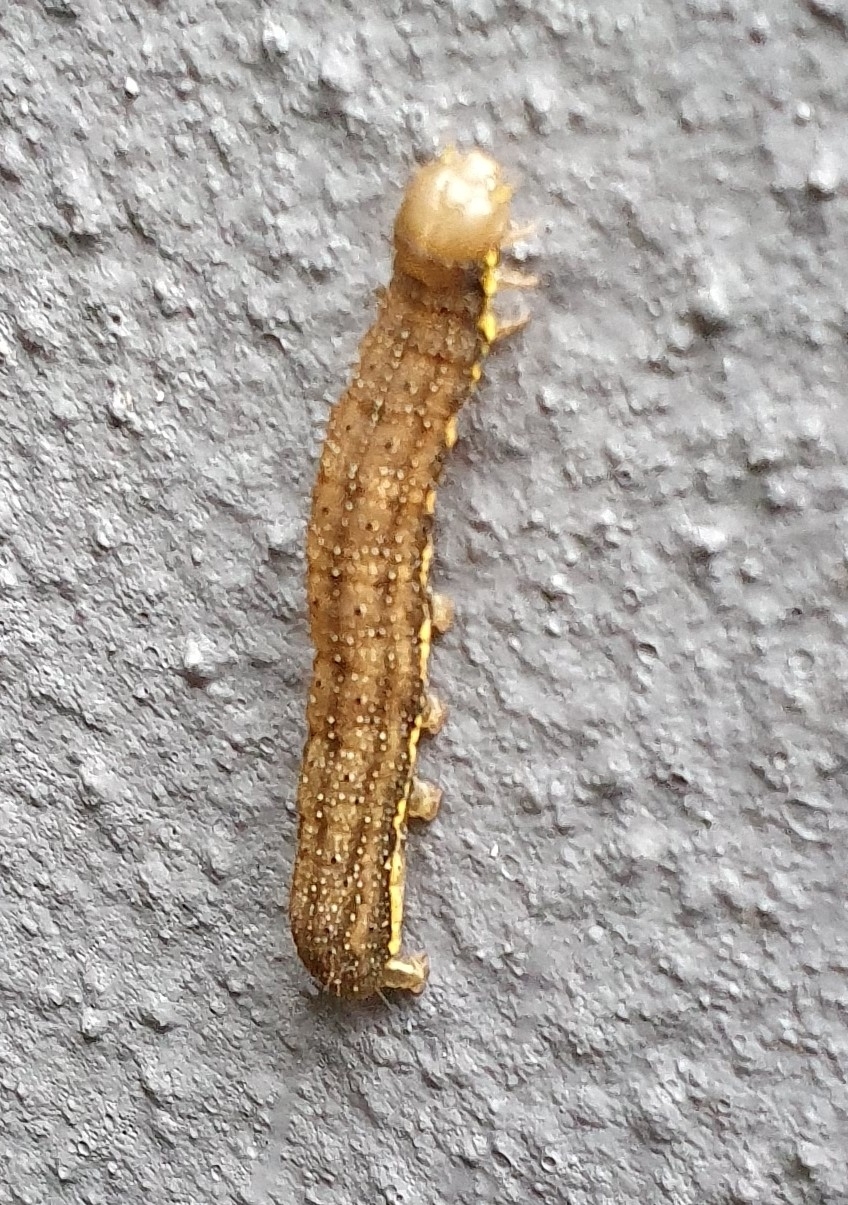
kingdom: Animalia
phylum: Arthropoda
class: Insecta
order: Lepidoptera
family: Noctuidae
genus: Lacanobia
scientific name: Lacanobia oleracea
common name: Bright-line brown-eye
